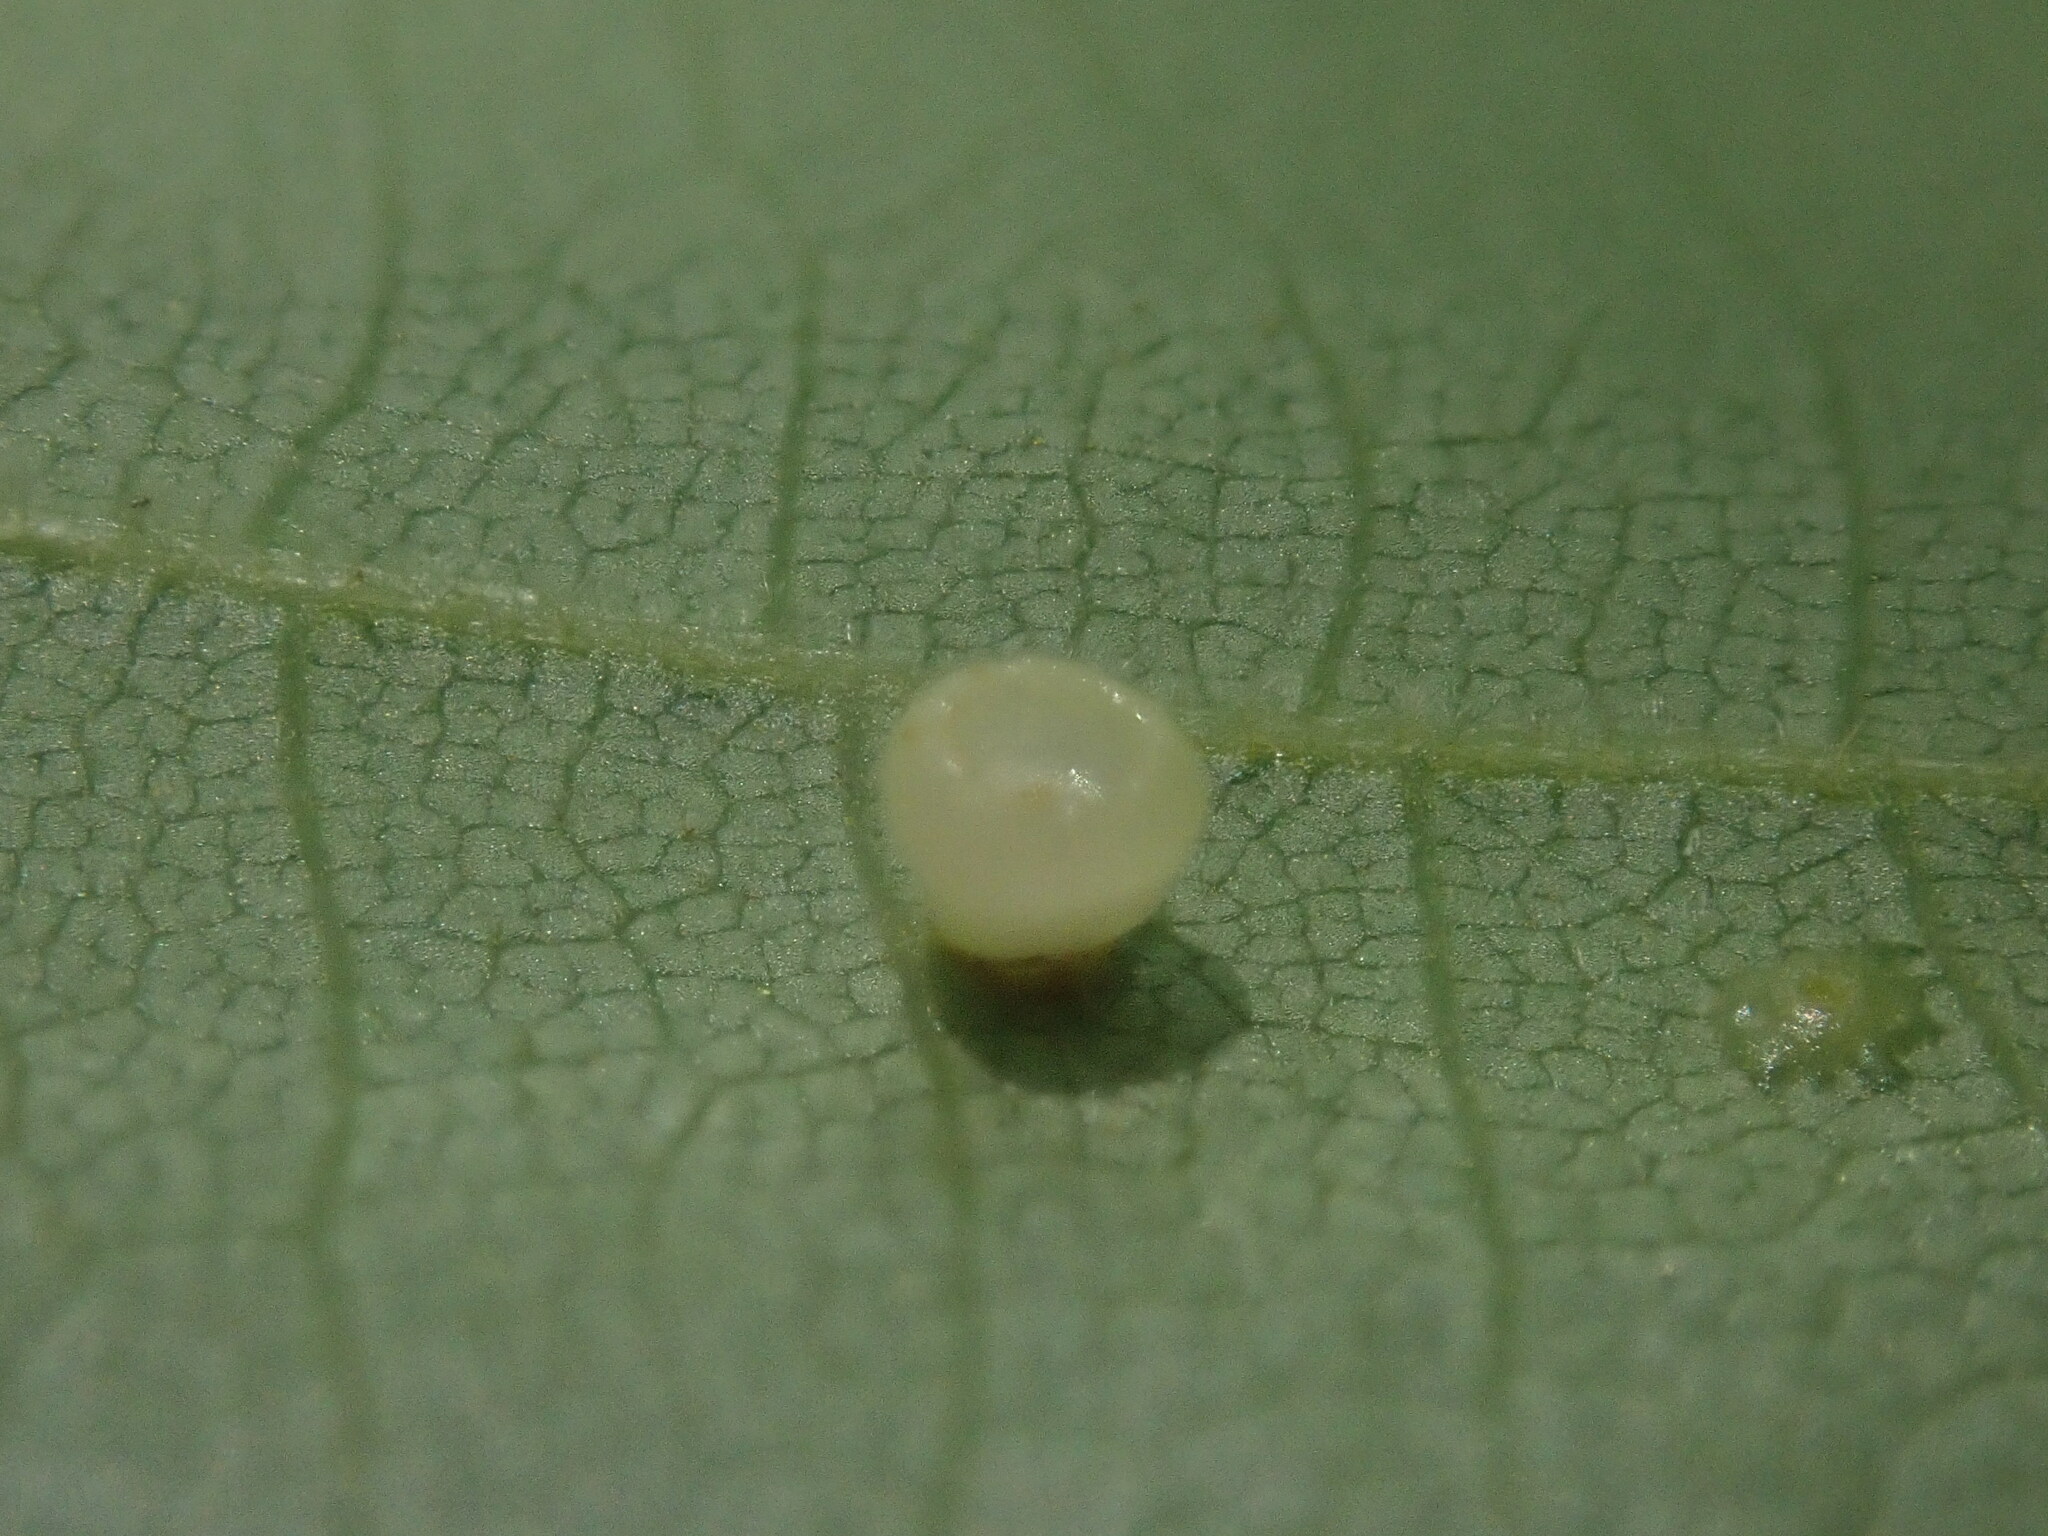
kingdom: Animalia
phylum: Arthropoda
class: Insecta
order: Diptera
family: Cecidomyiidae
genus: Caryomyia
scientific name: Caryomyia flaticrustum
